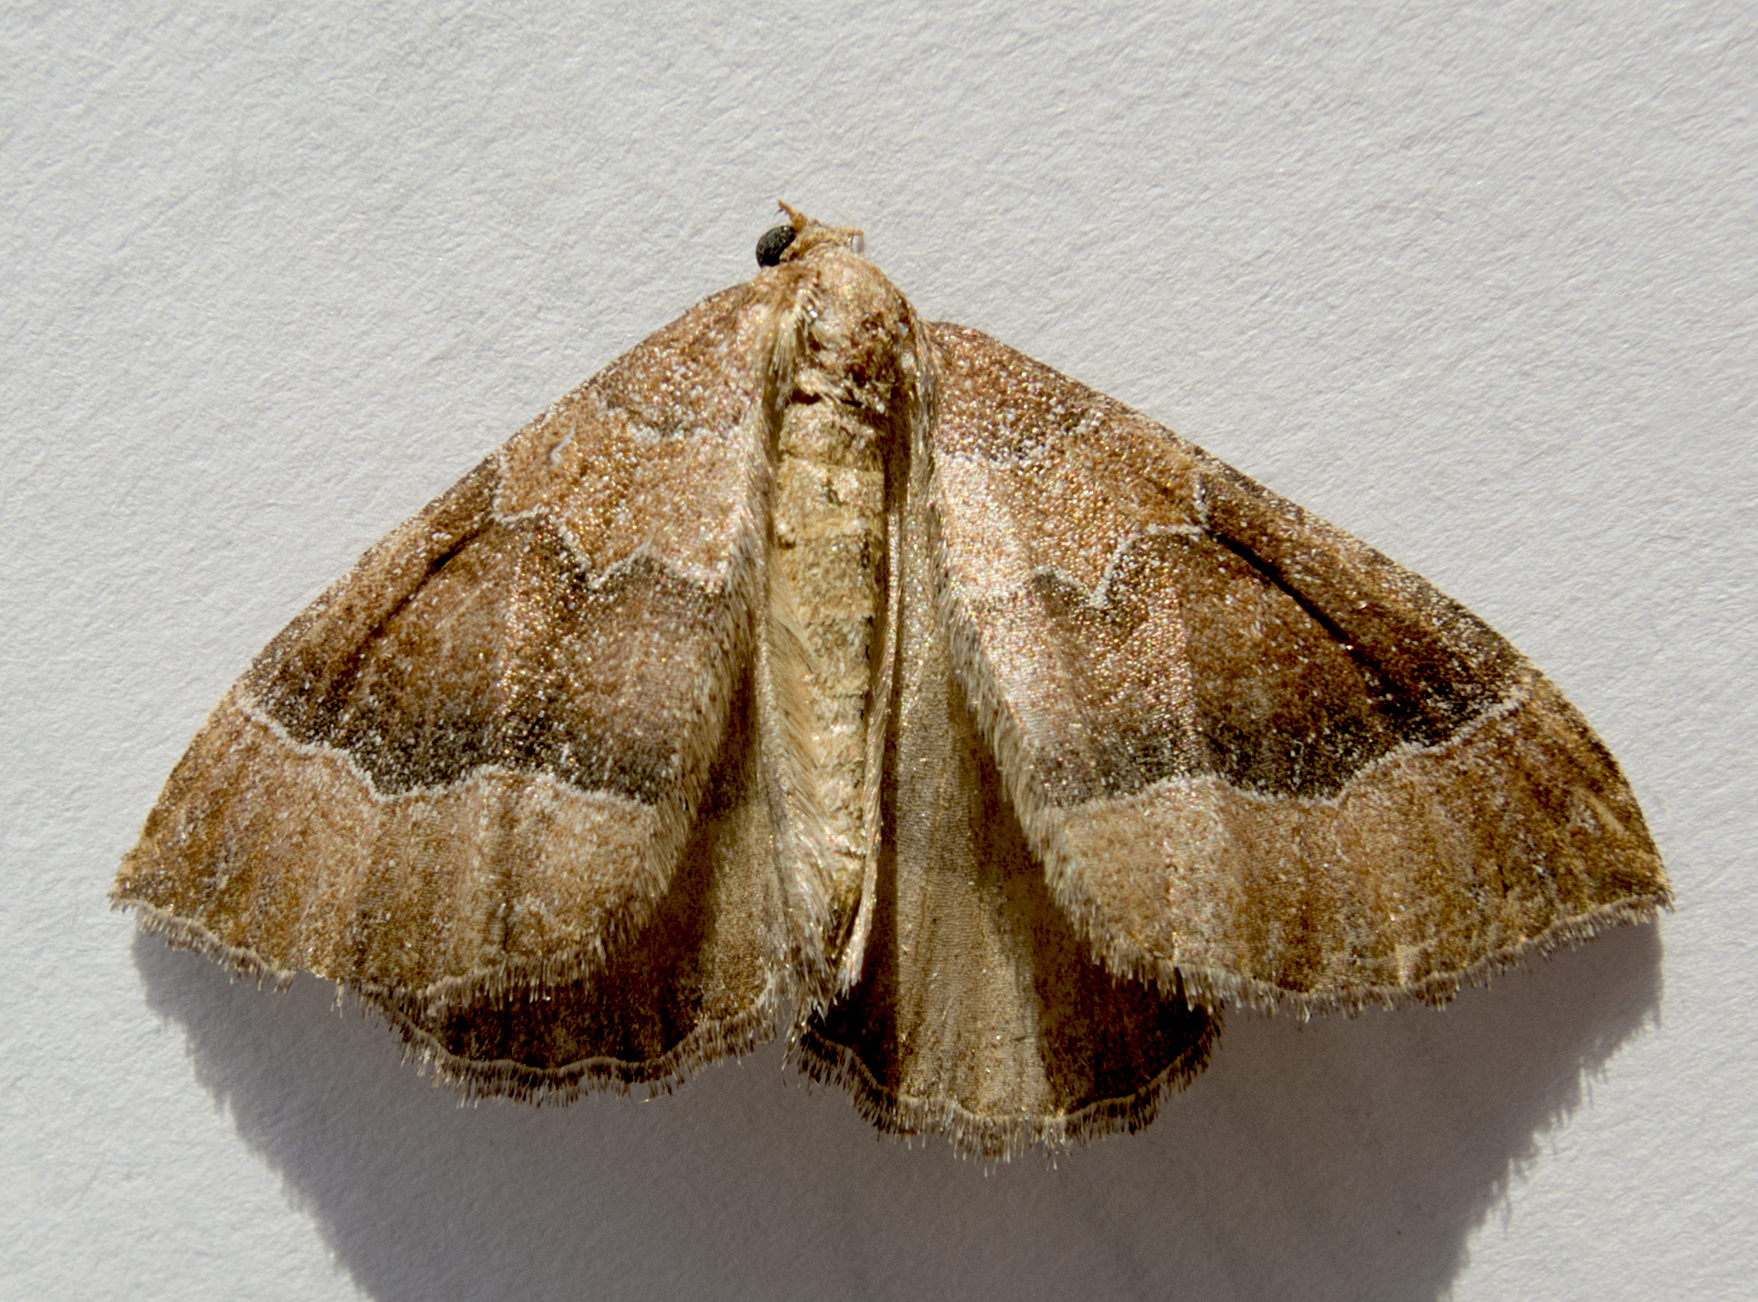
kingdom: Animalia
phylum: Arthropoda
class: Insecta
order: Lepidoptera
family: Geometridae
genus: Larentia
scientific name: Larentia clavaria
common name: Mallow
